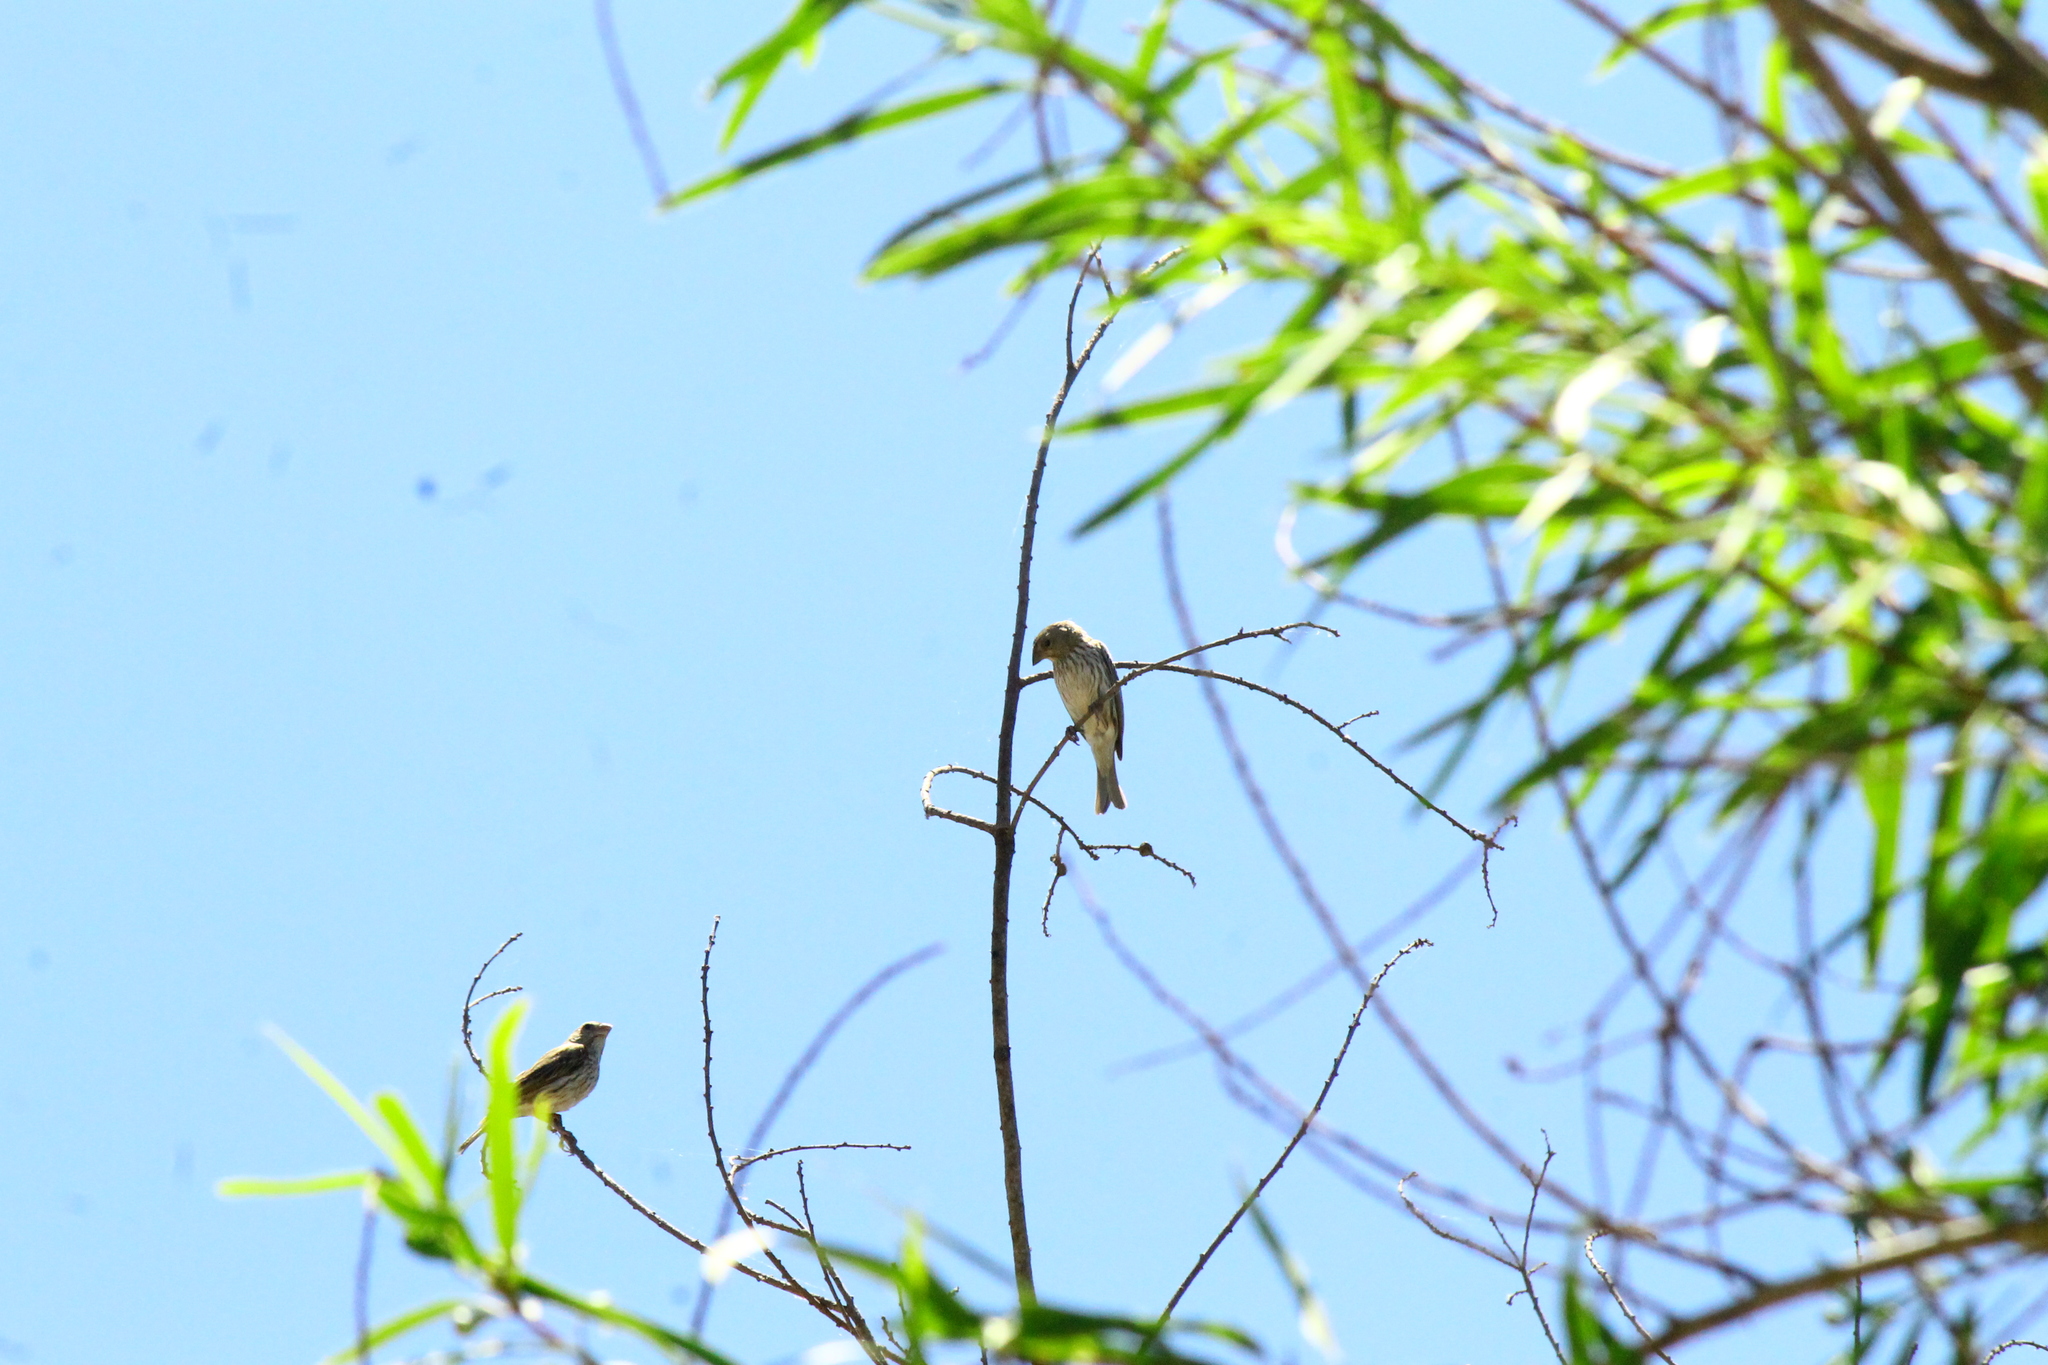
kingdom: Animalia
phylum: Chordata
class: Aves
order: Passeriformes
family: Thraupidae
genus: Sicalis
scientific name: Sicalis flaveola
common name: Saffron finch
